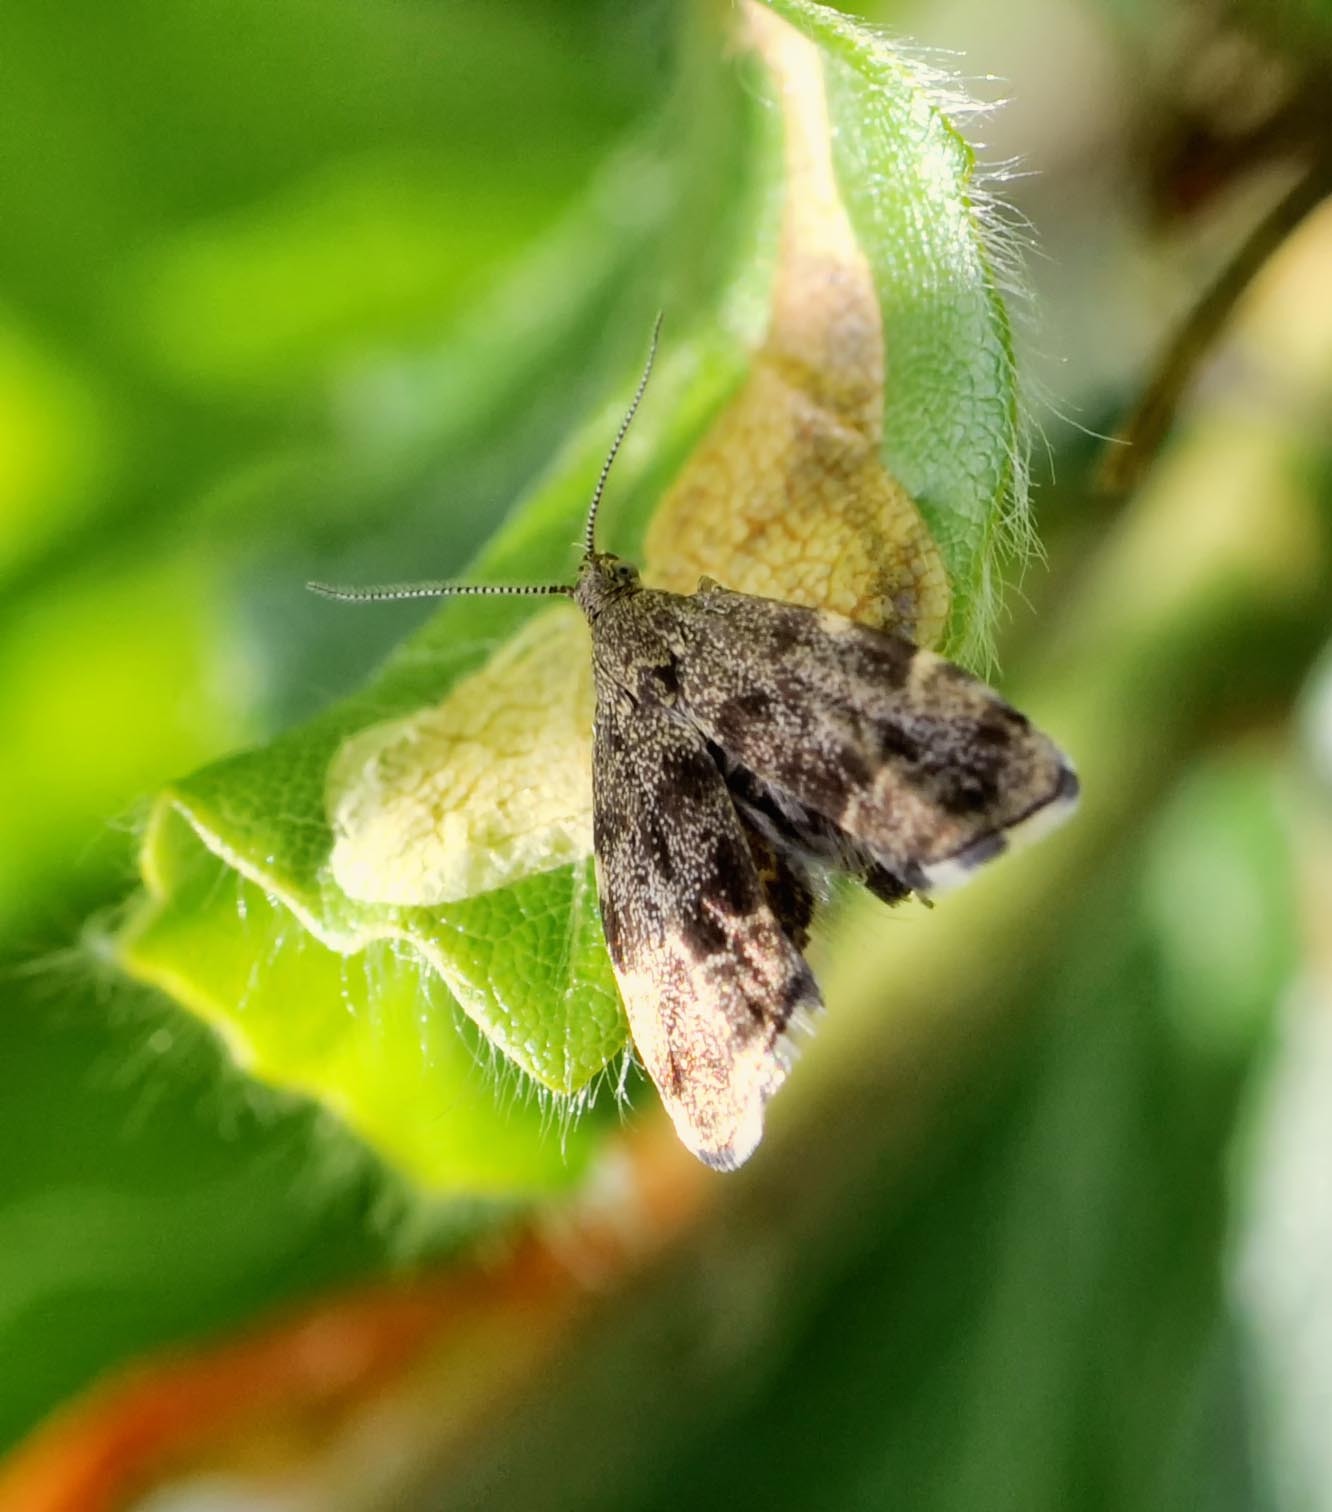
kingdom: Animalia
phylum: Arthropoda
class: Insecta
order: Lepidoptera
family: Choreutidae
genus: Anthophila
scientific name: Anthophila fabriciana
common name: Nettle-tap
